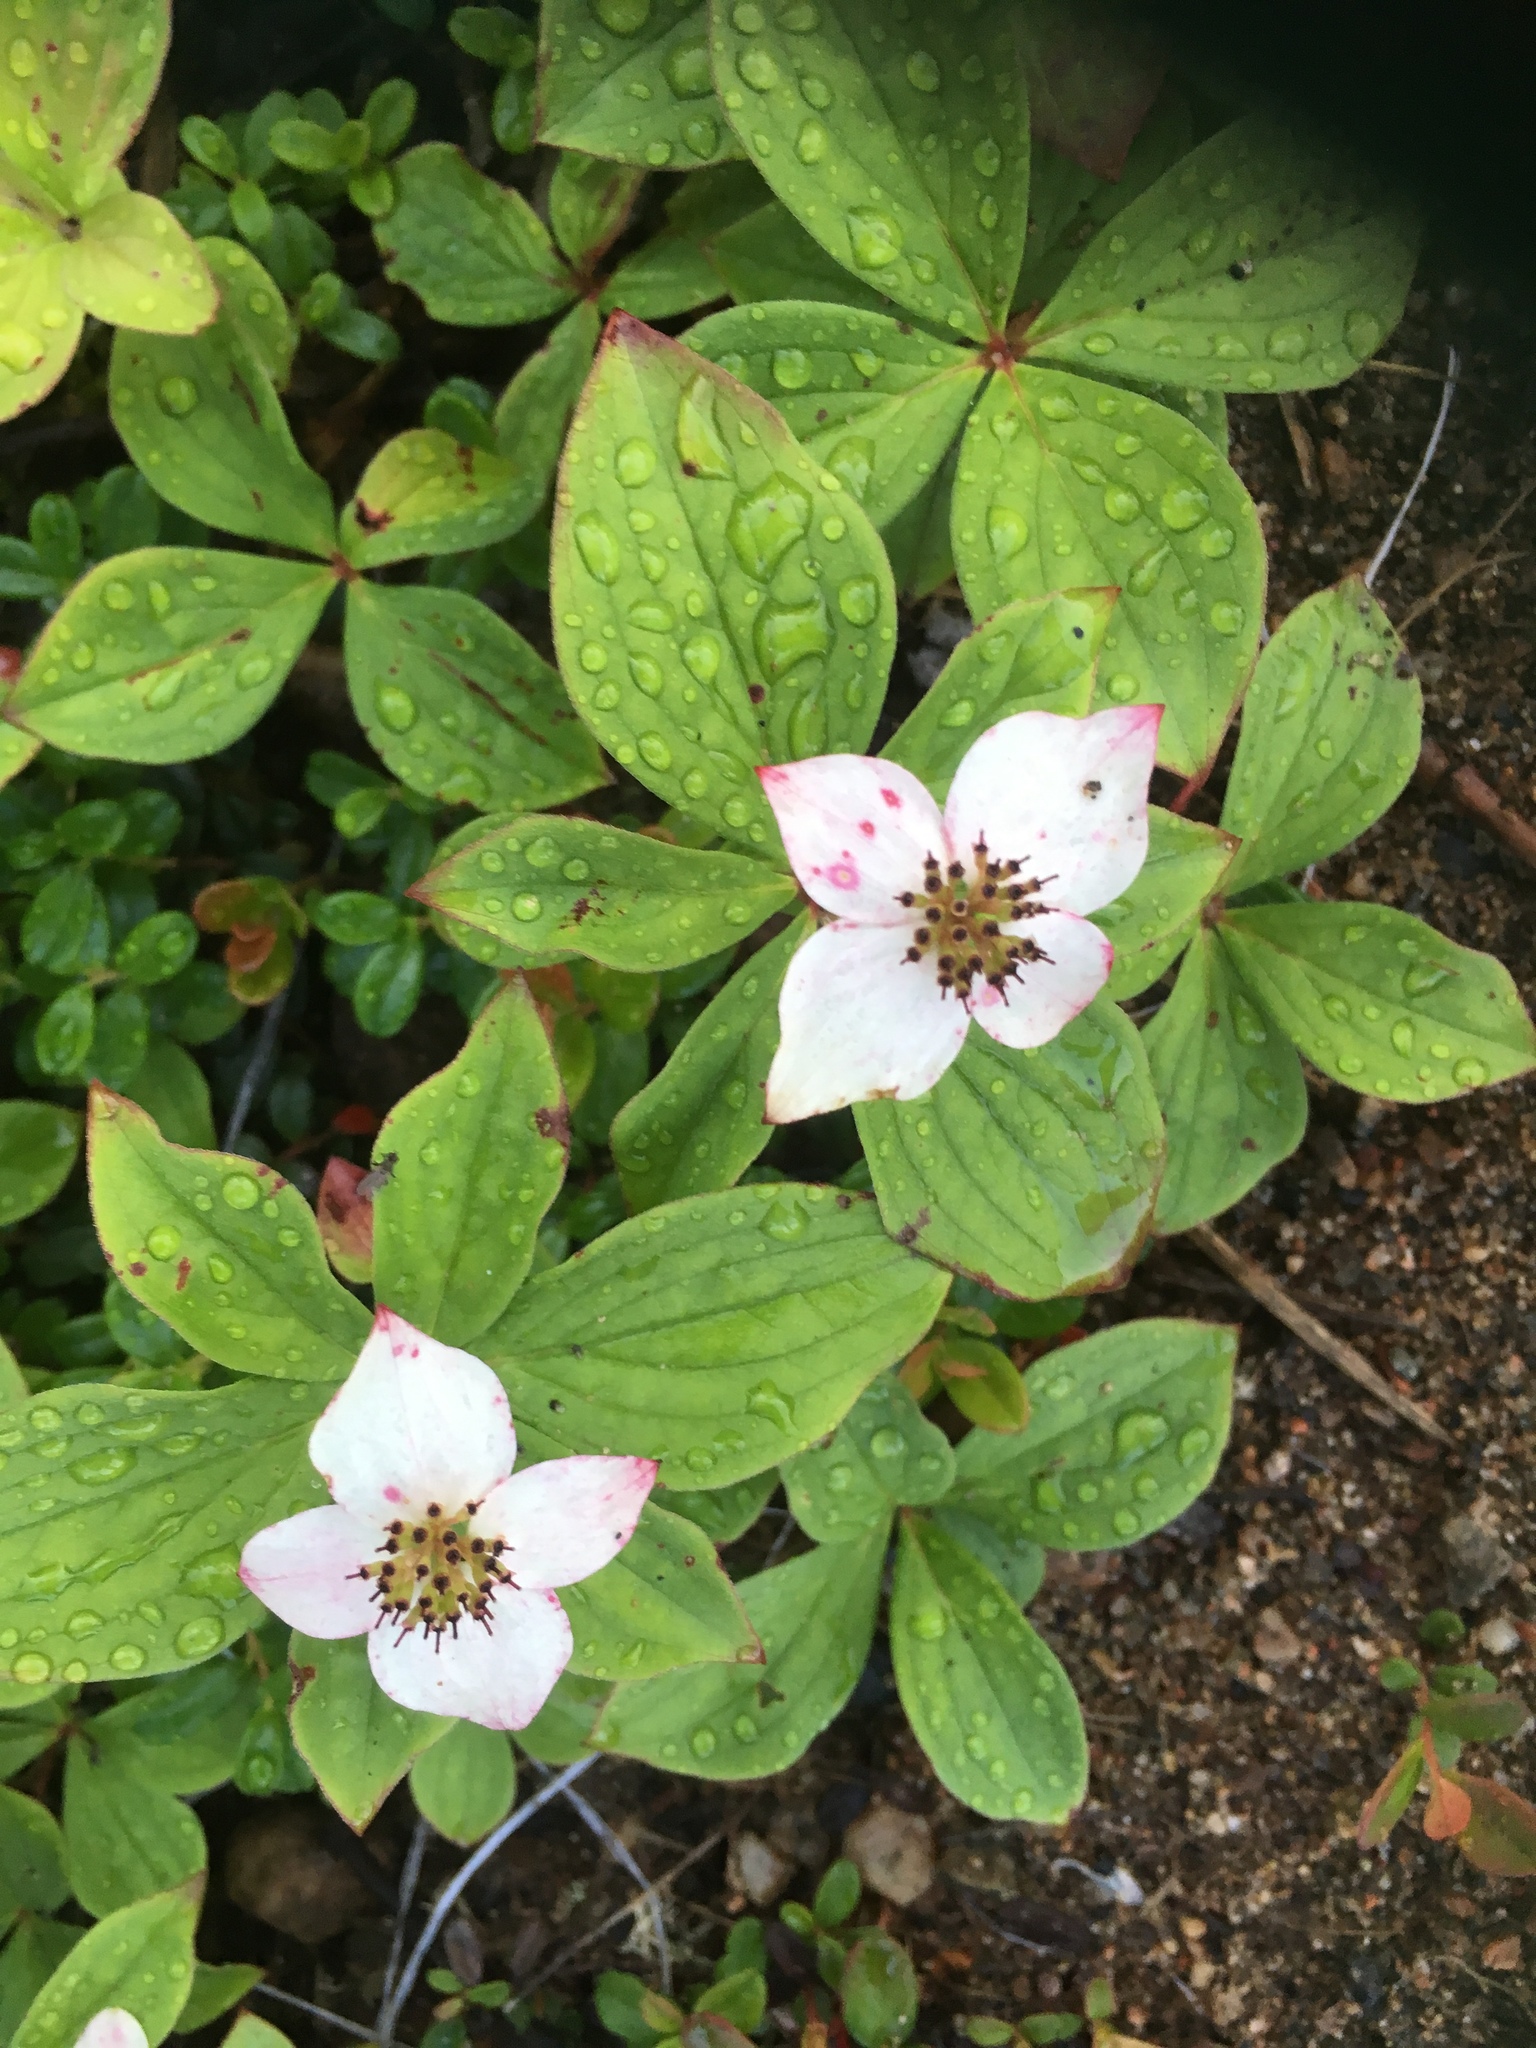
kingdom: Plantae
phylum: Tracheophyta
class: Magnoliopsida
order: Cornales
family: Cornaceae
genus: Cornus
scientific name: Cornus canadensis
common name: Creeping dogwood
